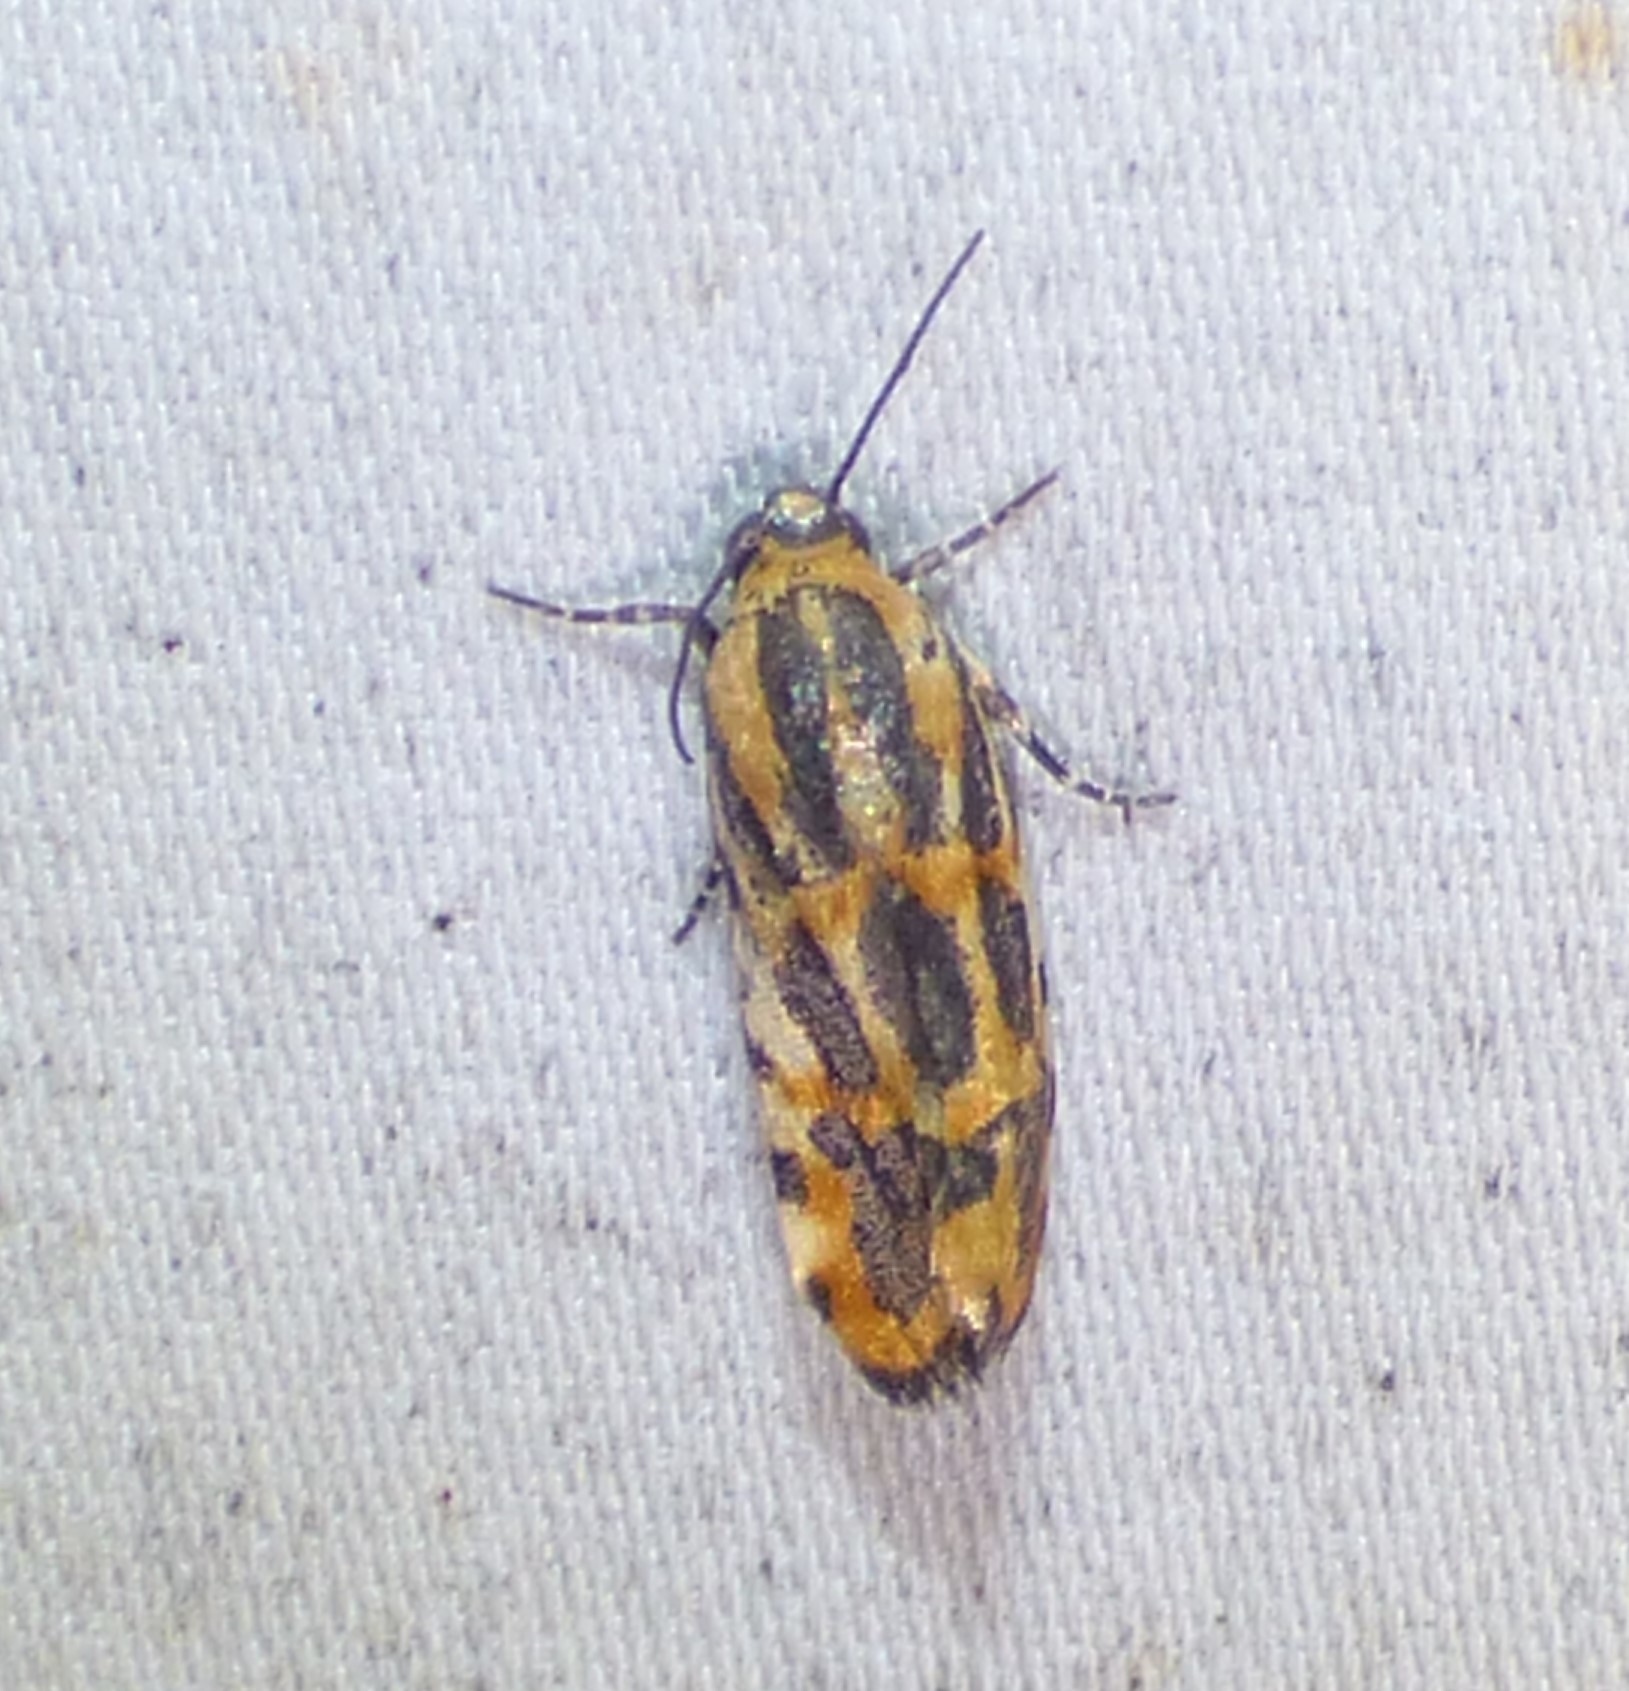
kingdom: Animalia
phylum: Arthropoda
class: Insecta
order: Lepidoptera
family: Noctuidae
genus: Acontia
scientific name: Acontia leo
